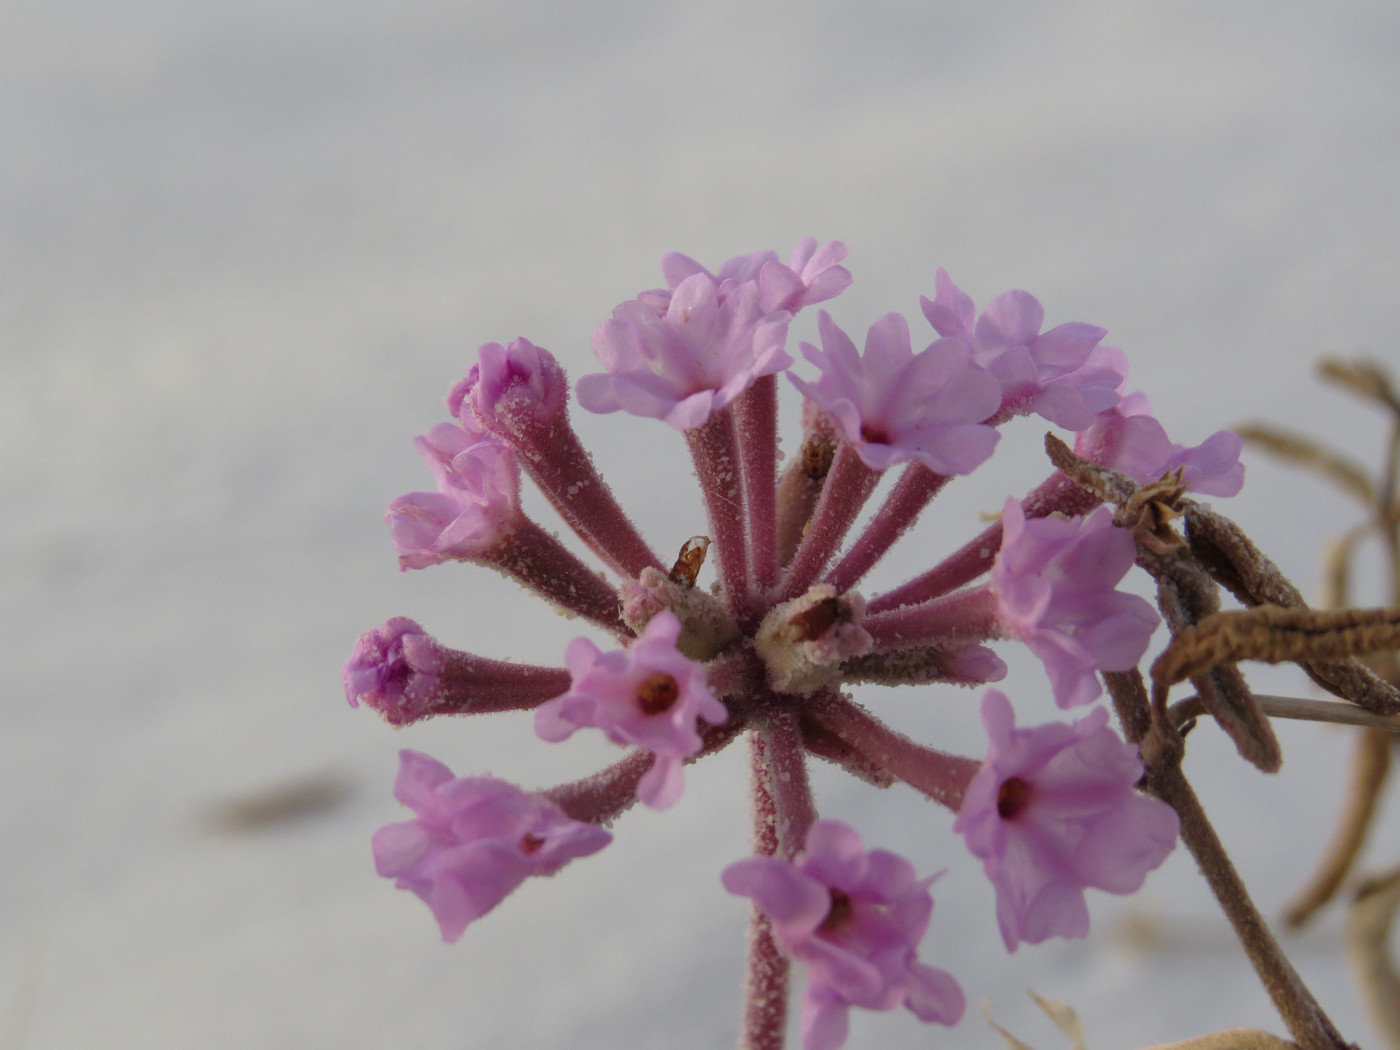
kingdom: Plantae
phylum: Tracheophyta
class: Magnoliopsida
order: Caryophyllales
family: Nyctaginaceae
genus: Abronia
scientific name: Abronia angustifolia
